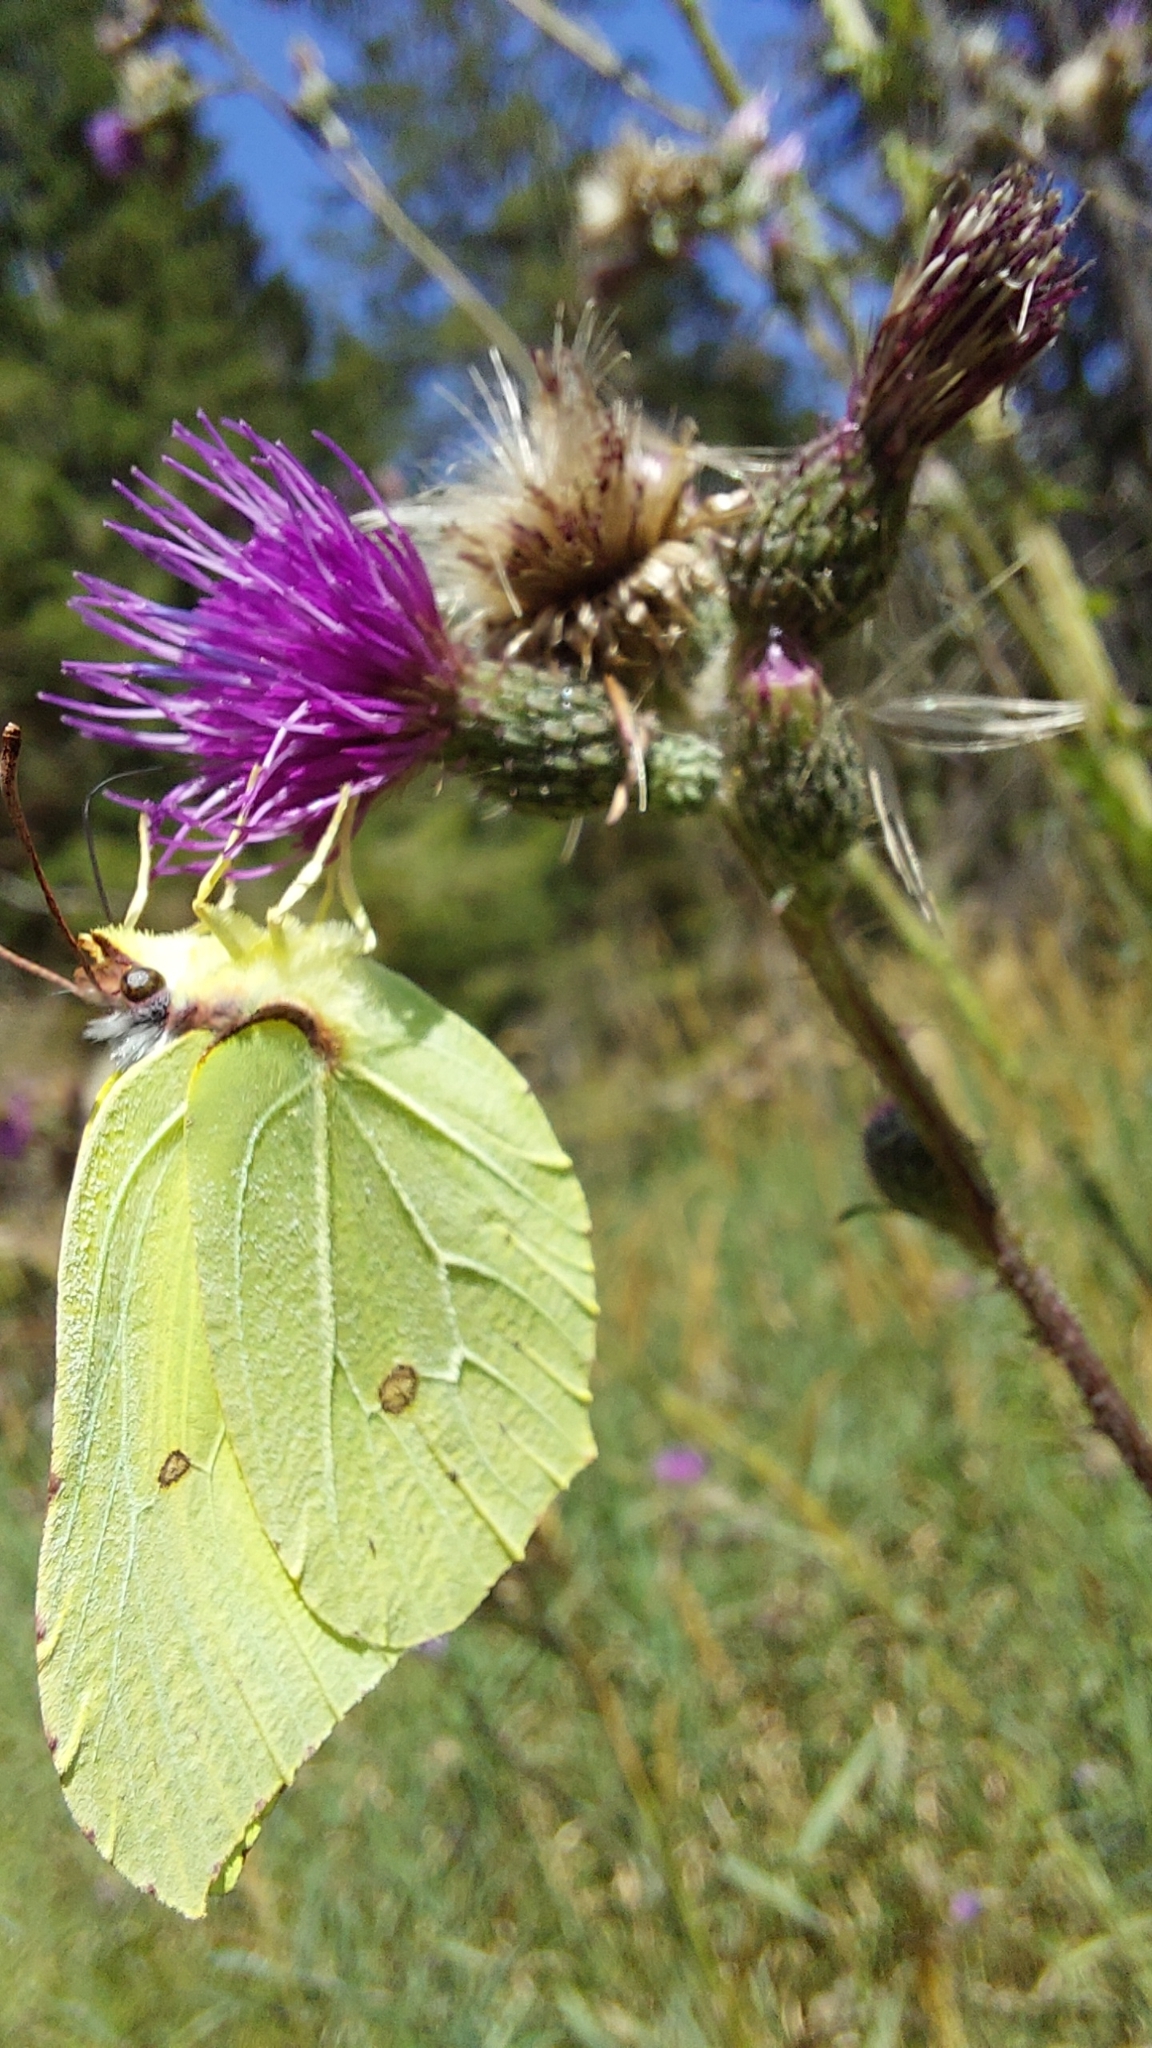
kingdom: Animalia
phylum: Arthropoda
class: Insecta
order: Lepidoptera
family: Pieridae
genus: Gonepteryx
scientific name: Gonepteryx rhamni
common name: Brimstone
